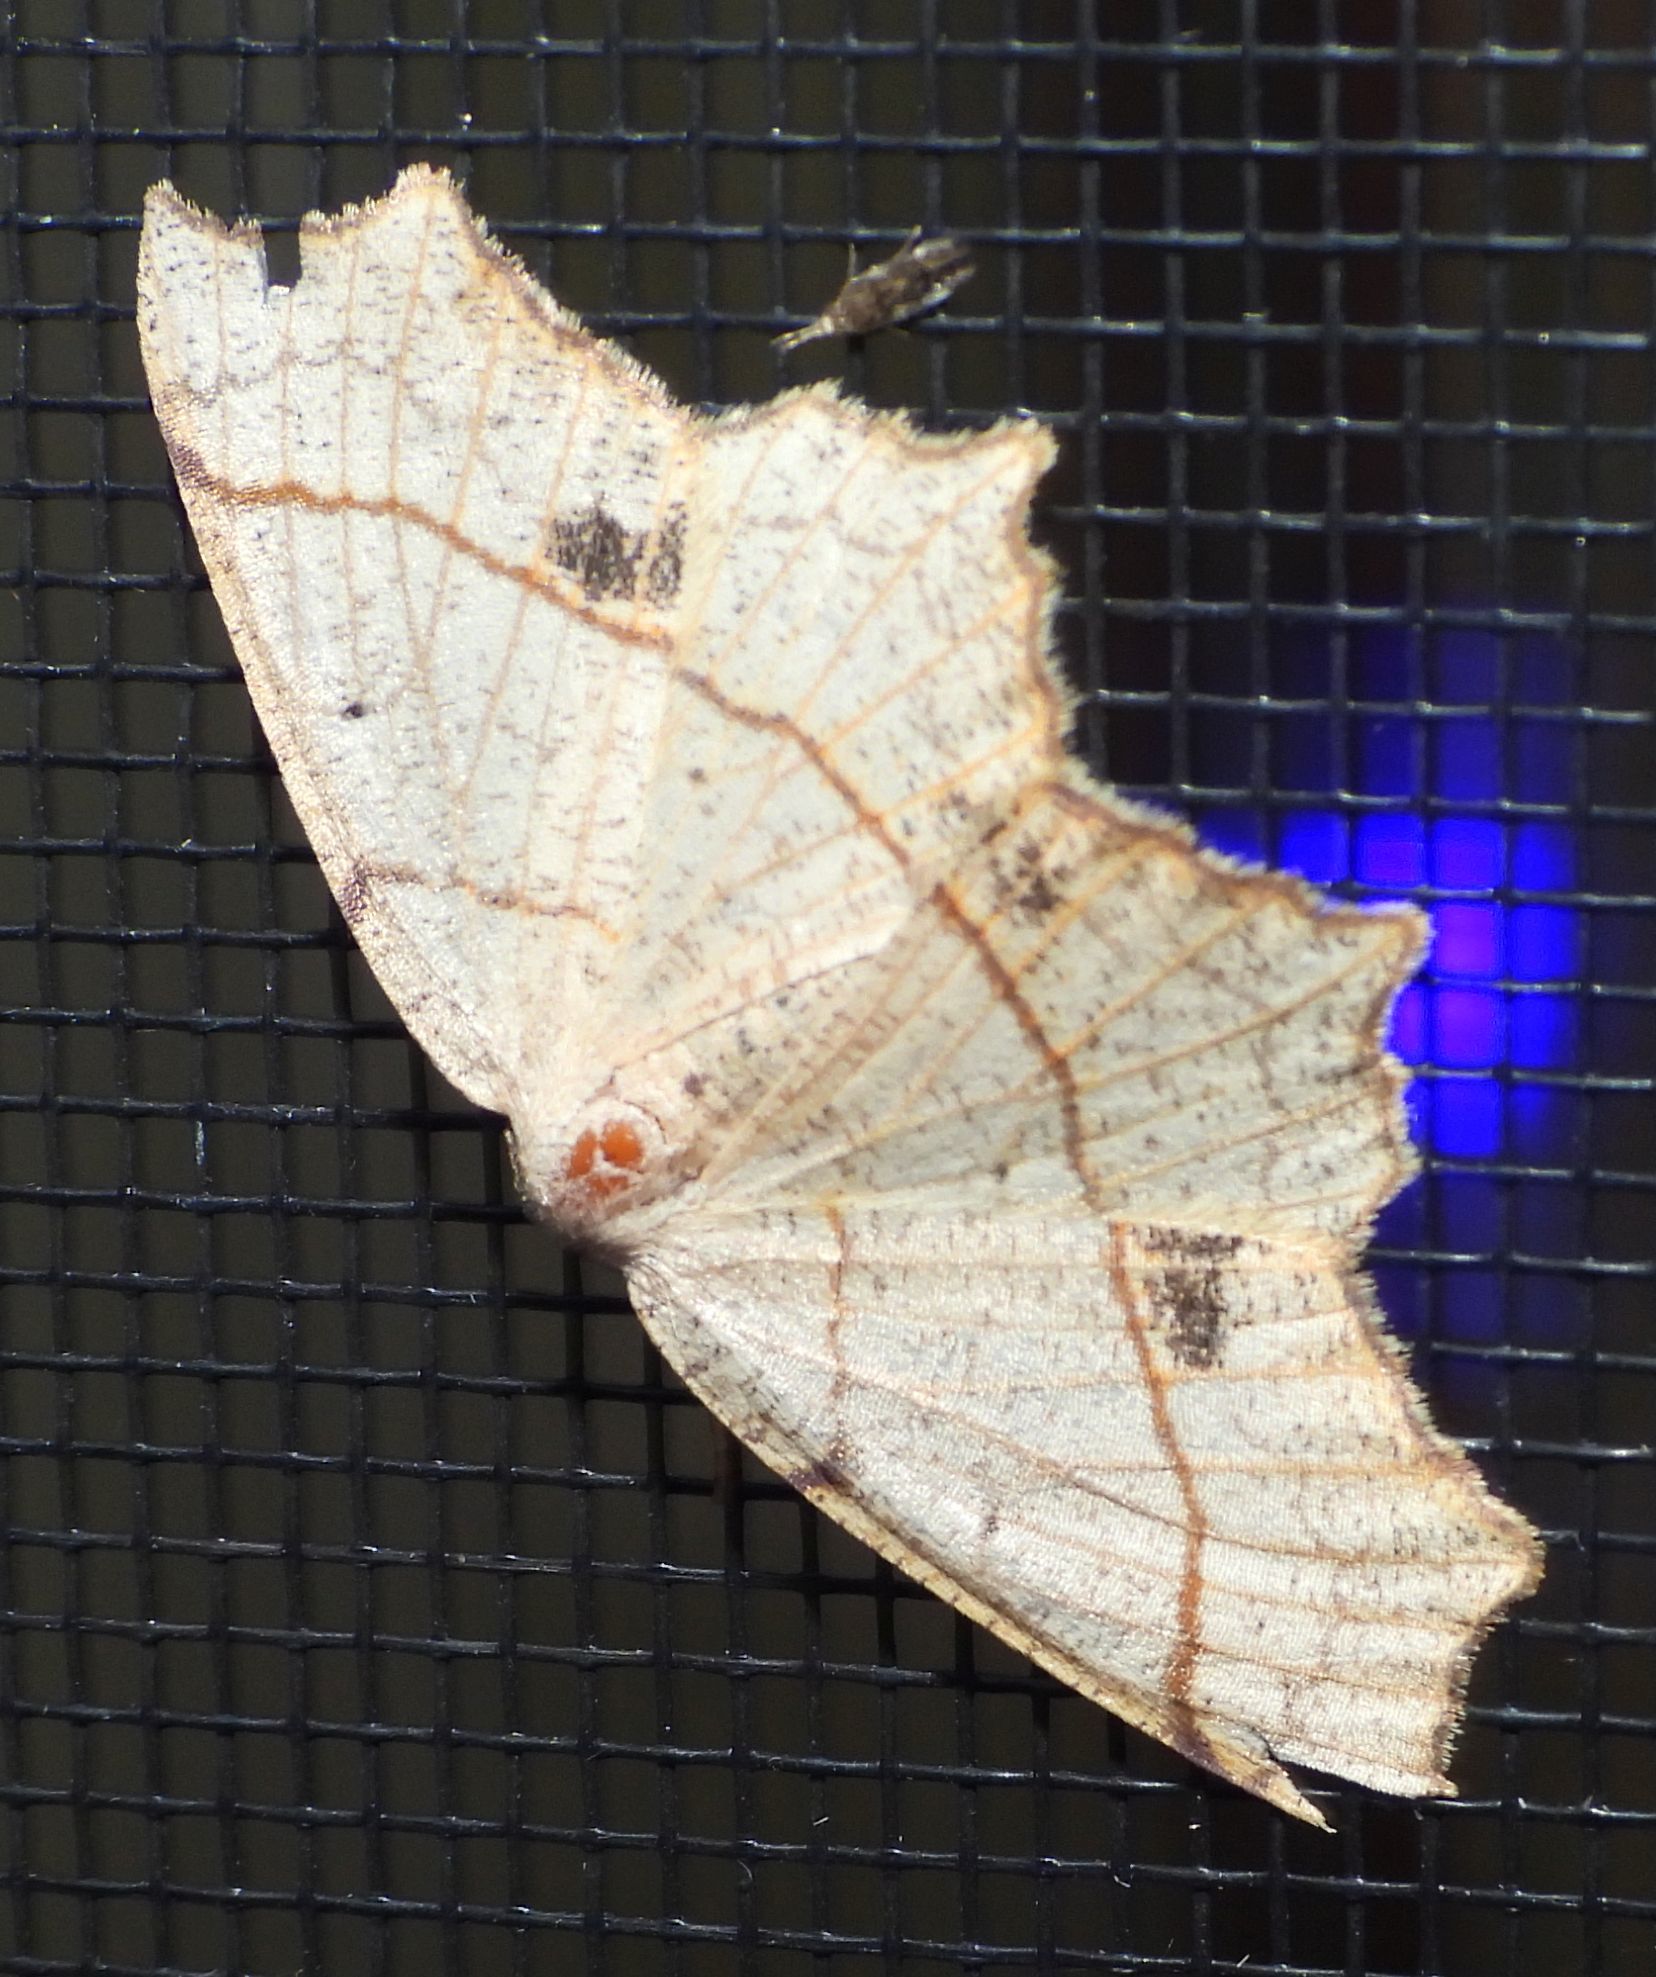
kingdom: Animalia
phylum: Arthropoda
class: Insecta
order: Lepidoptera
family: Geometridae
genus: Besma
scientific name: Besma quercivoraria
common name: Oak besma
